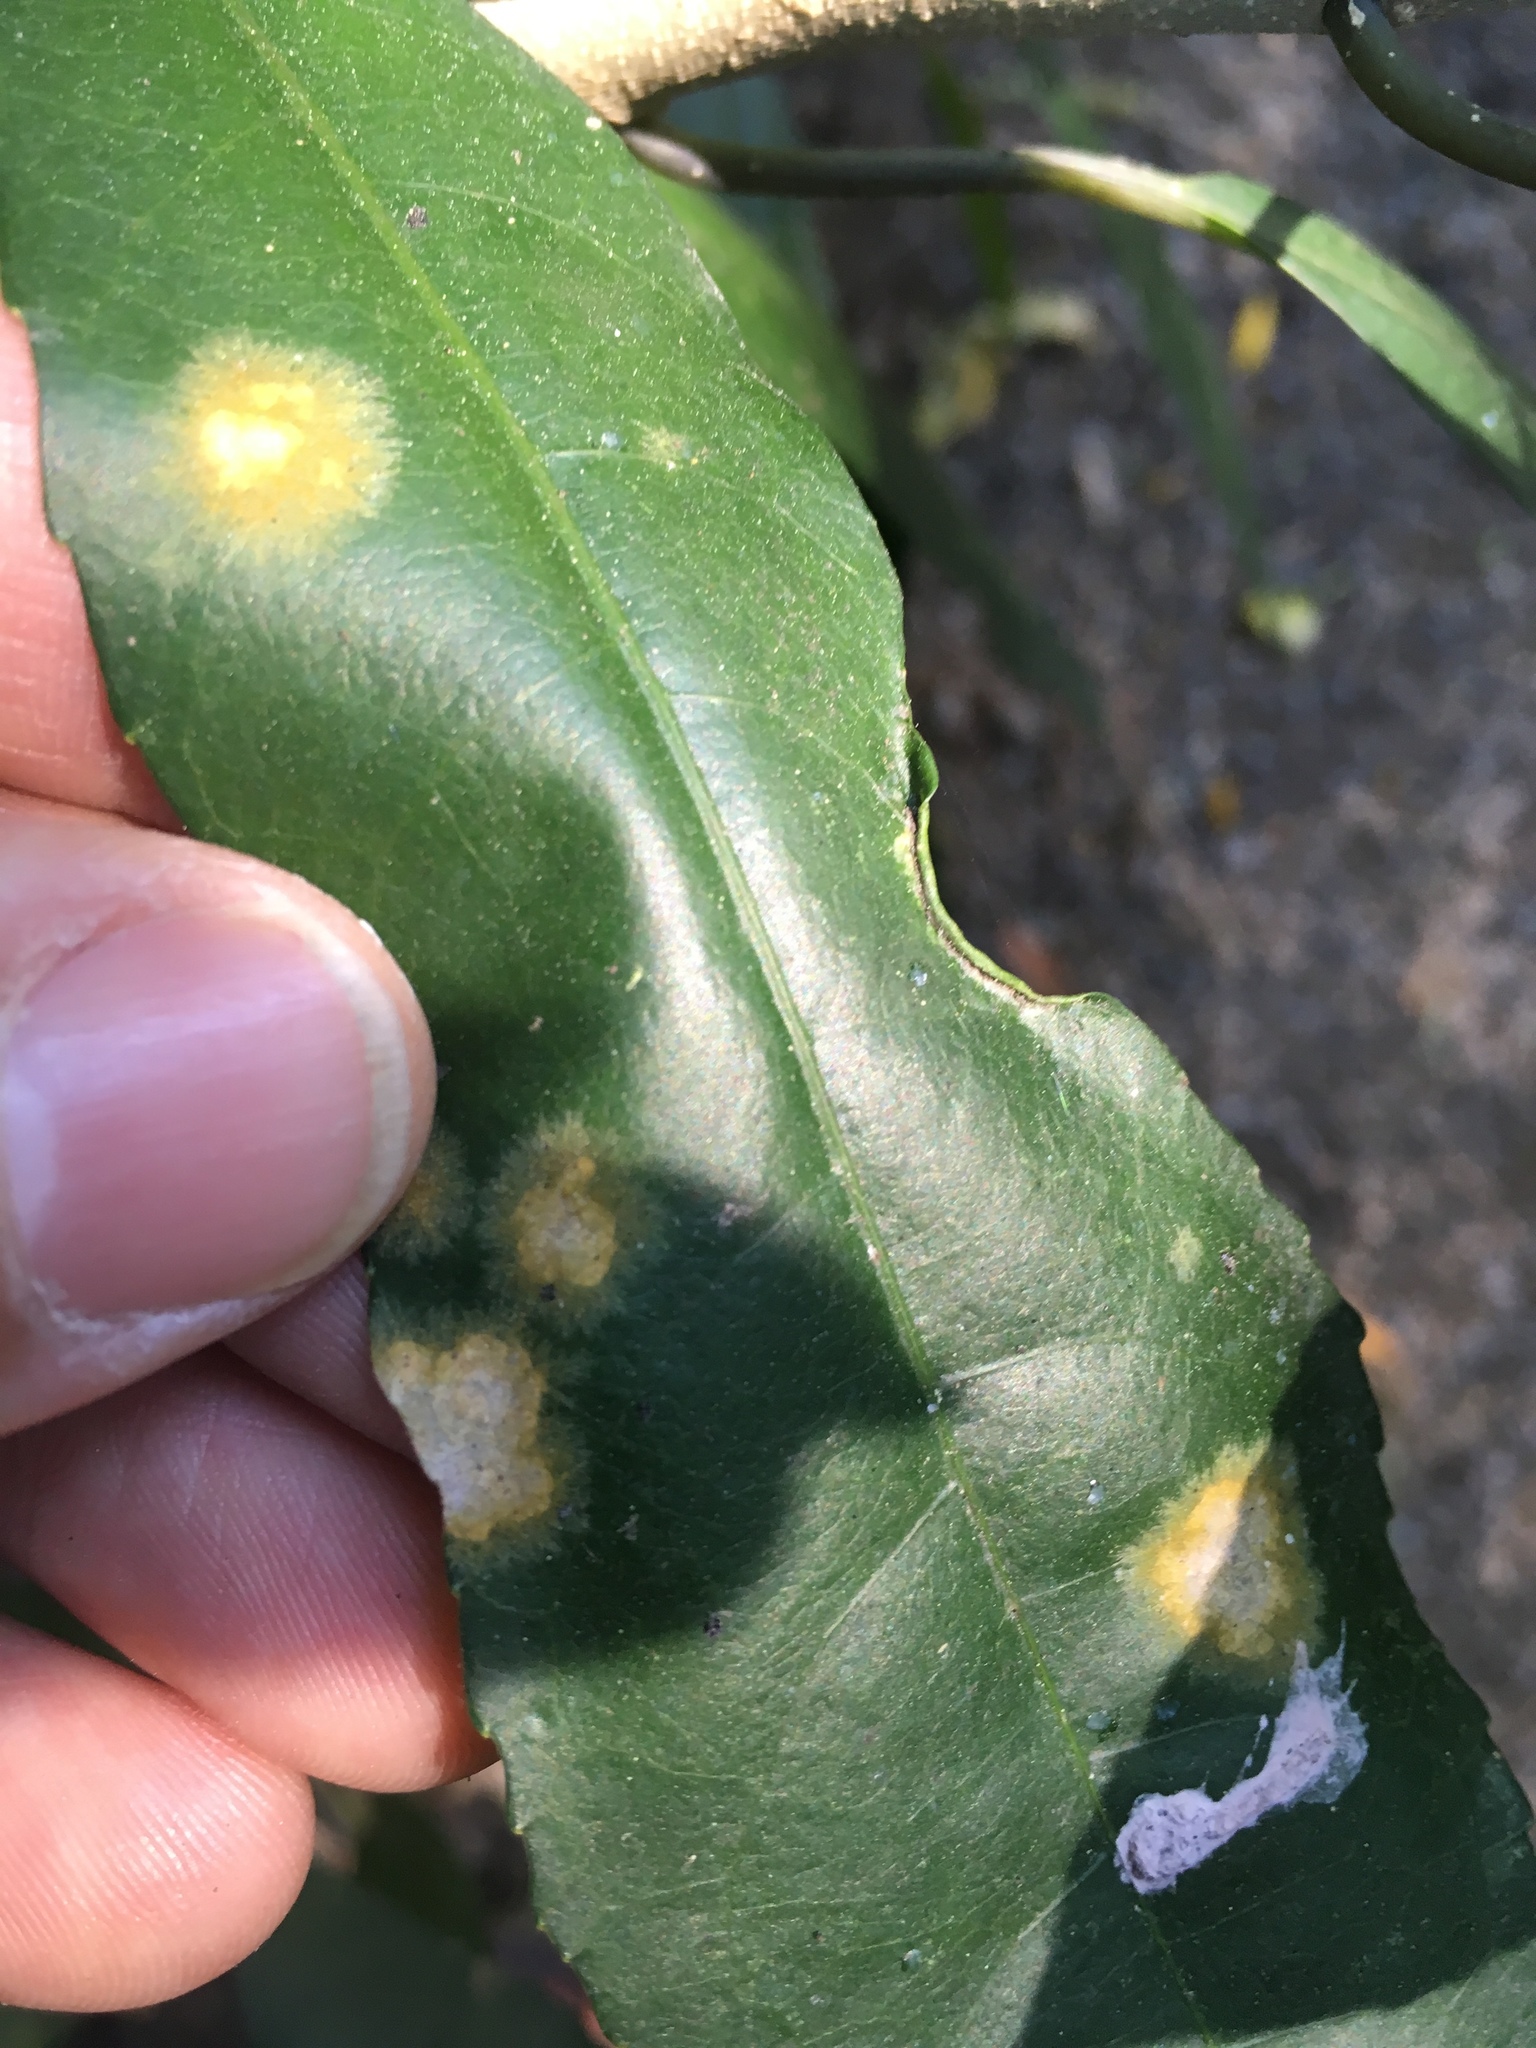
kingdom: Plantae
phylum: Chlorophyta
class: Ulvophyceae
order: Trentepohliales
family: Trentepohliaceae
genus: Cephaleuros
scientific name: Cephaleuros
